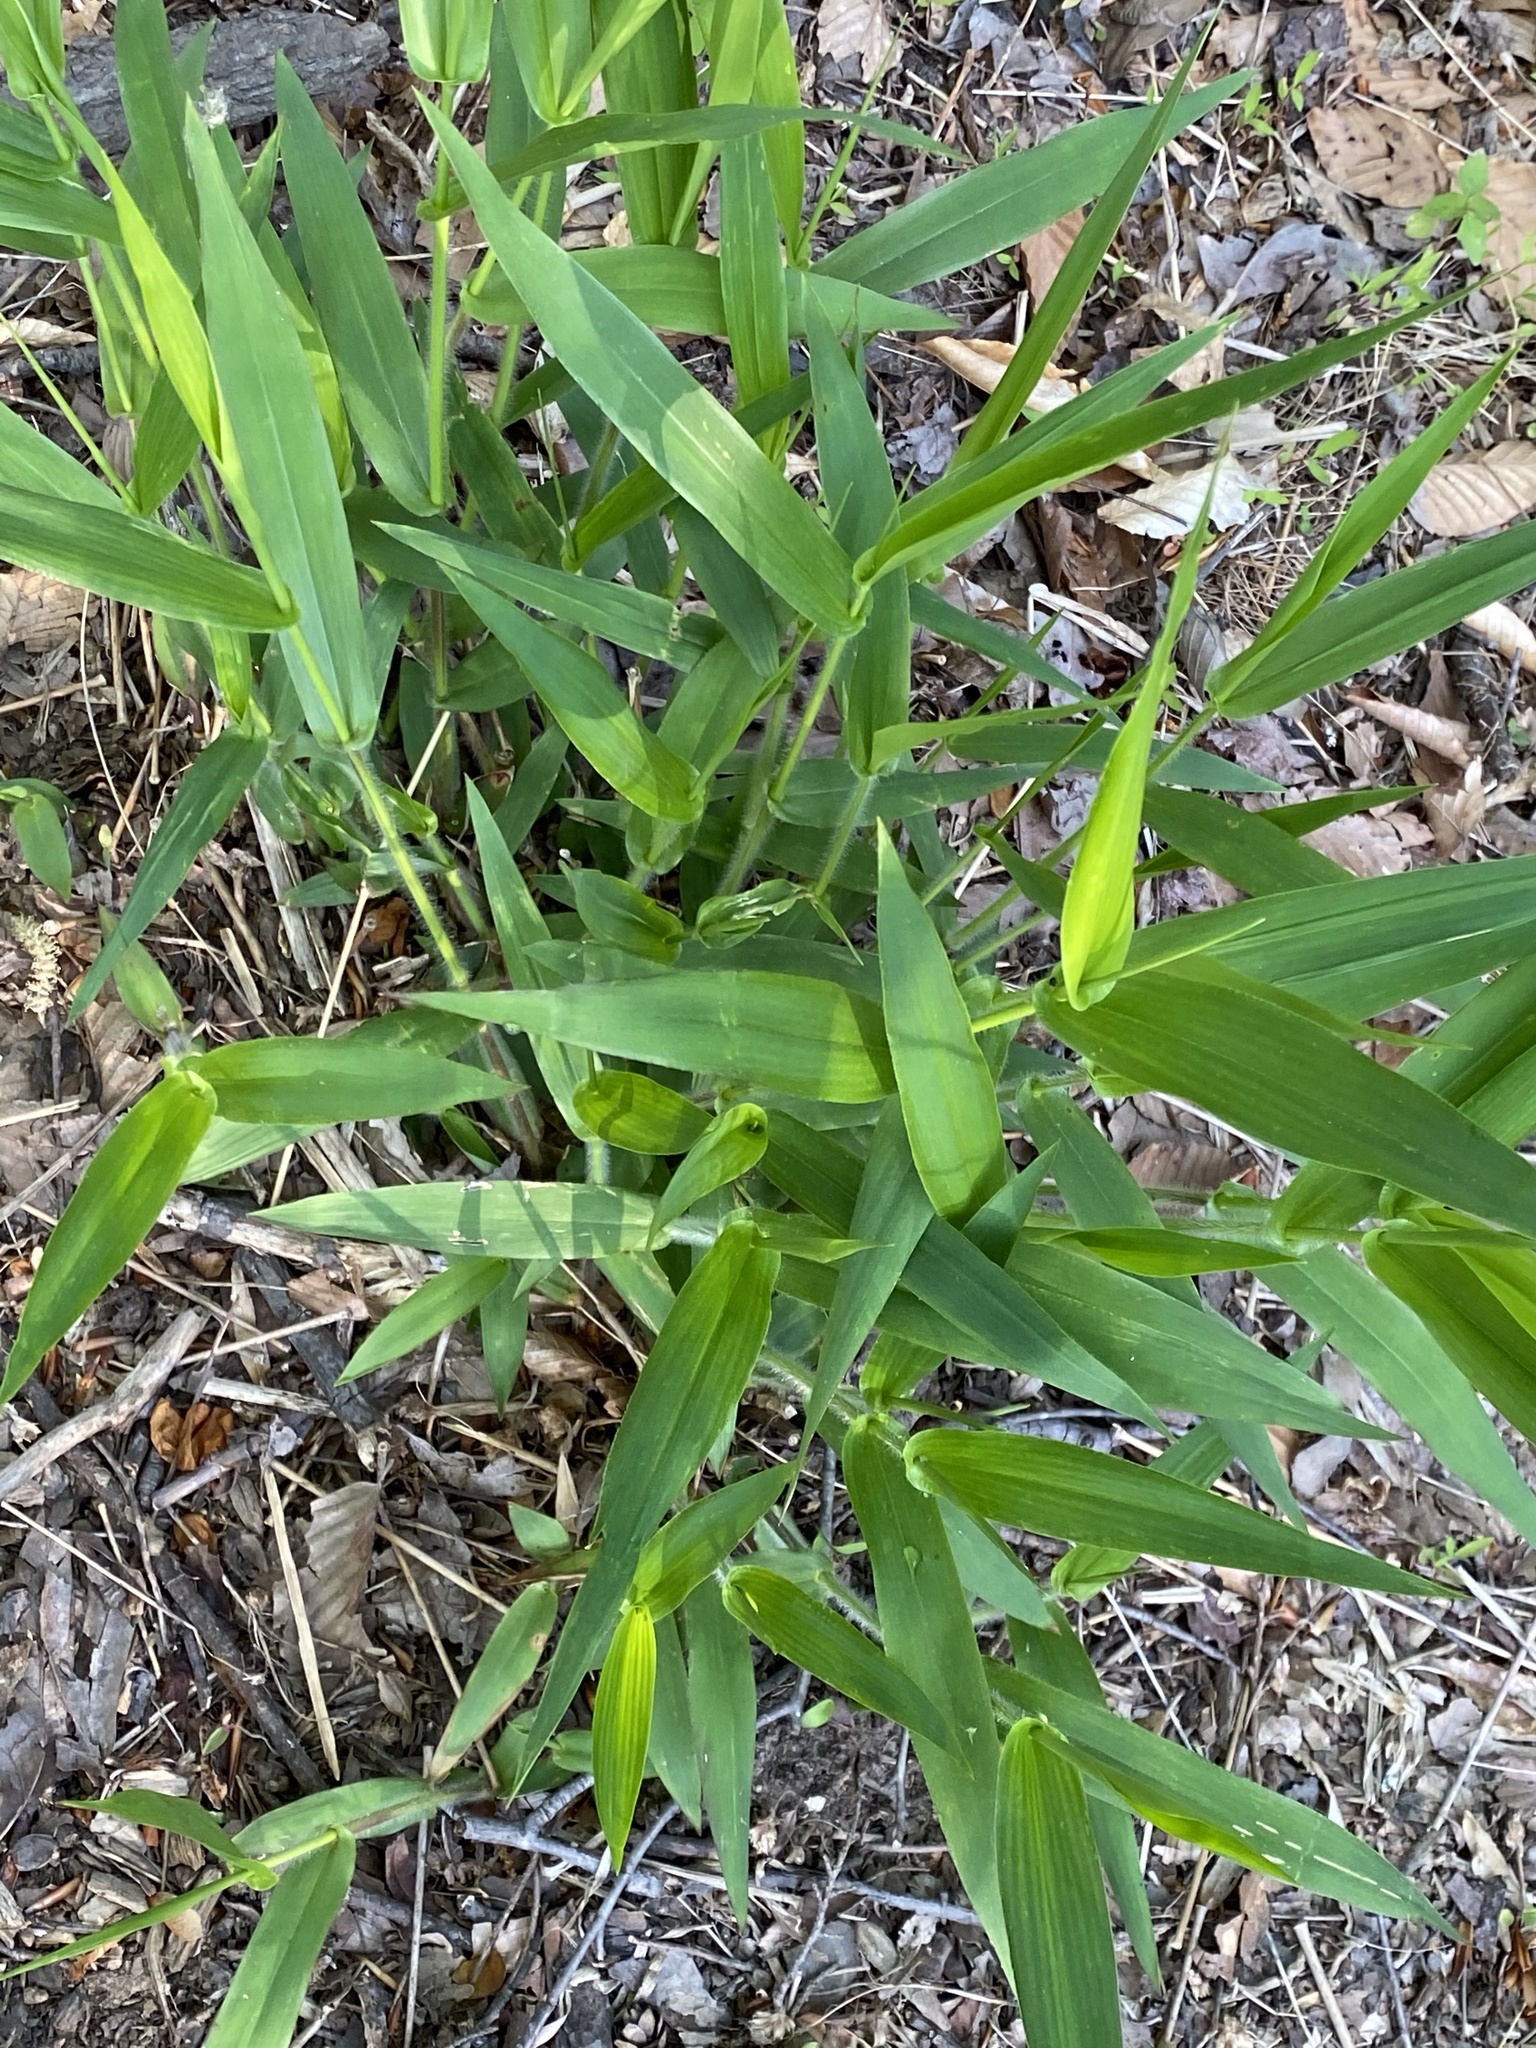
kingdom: Plantae
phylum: Tracheophyta
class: Liliopsida
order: Poales
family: Poaceae
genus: Dichanthelium
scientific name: Dichanthelium clandestinum
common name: Deer-tongue grass
